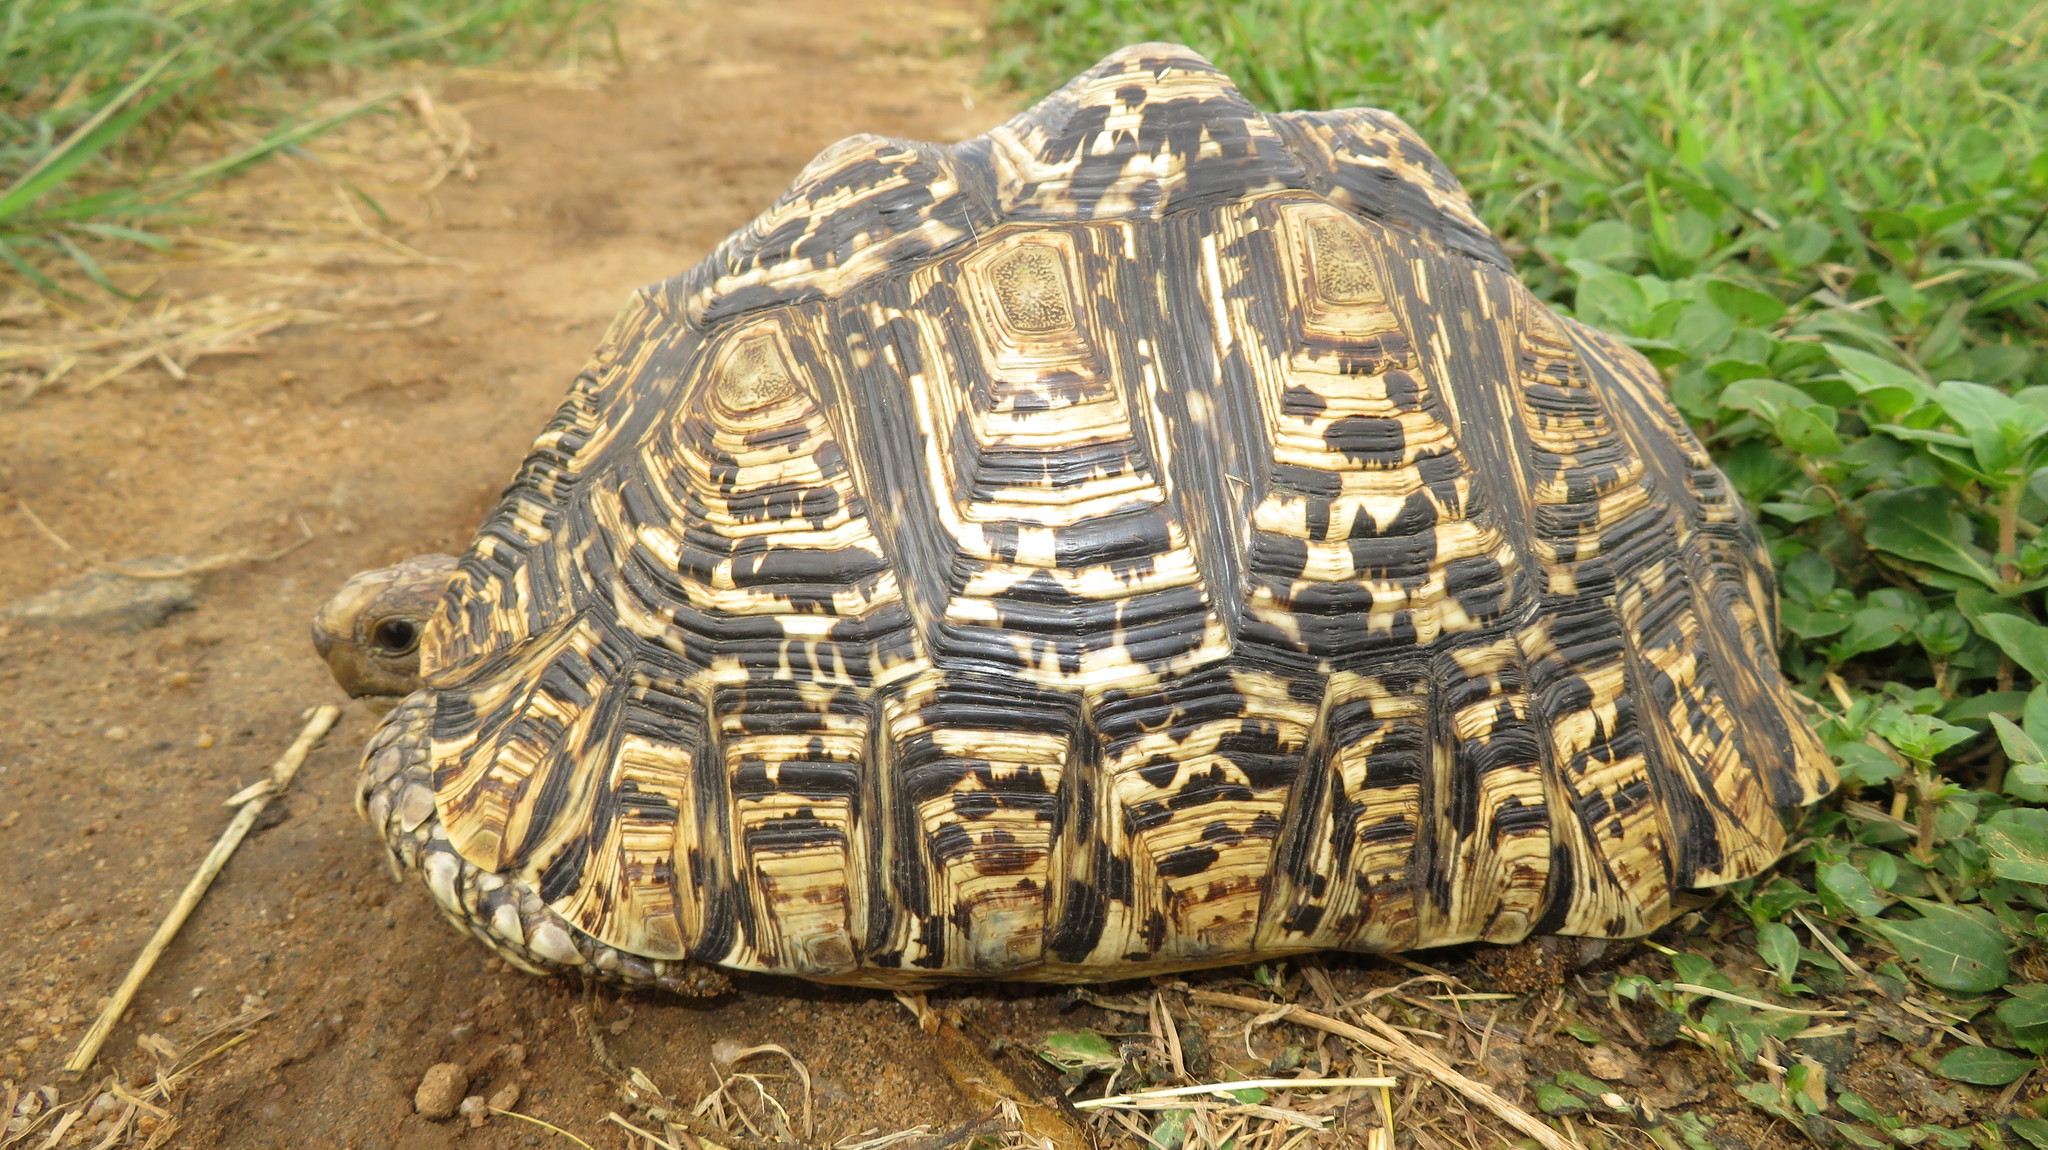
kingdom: Animalia
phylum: Chordata
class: Testudines
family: Testudinidae
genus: Stigmochelys
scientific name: Stigmochelys pardalis
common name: Leopard tortoise
